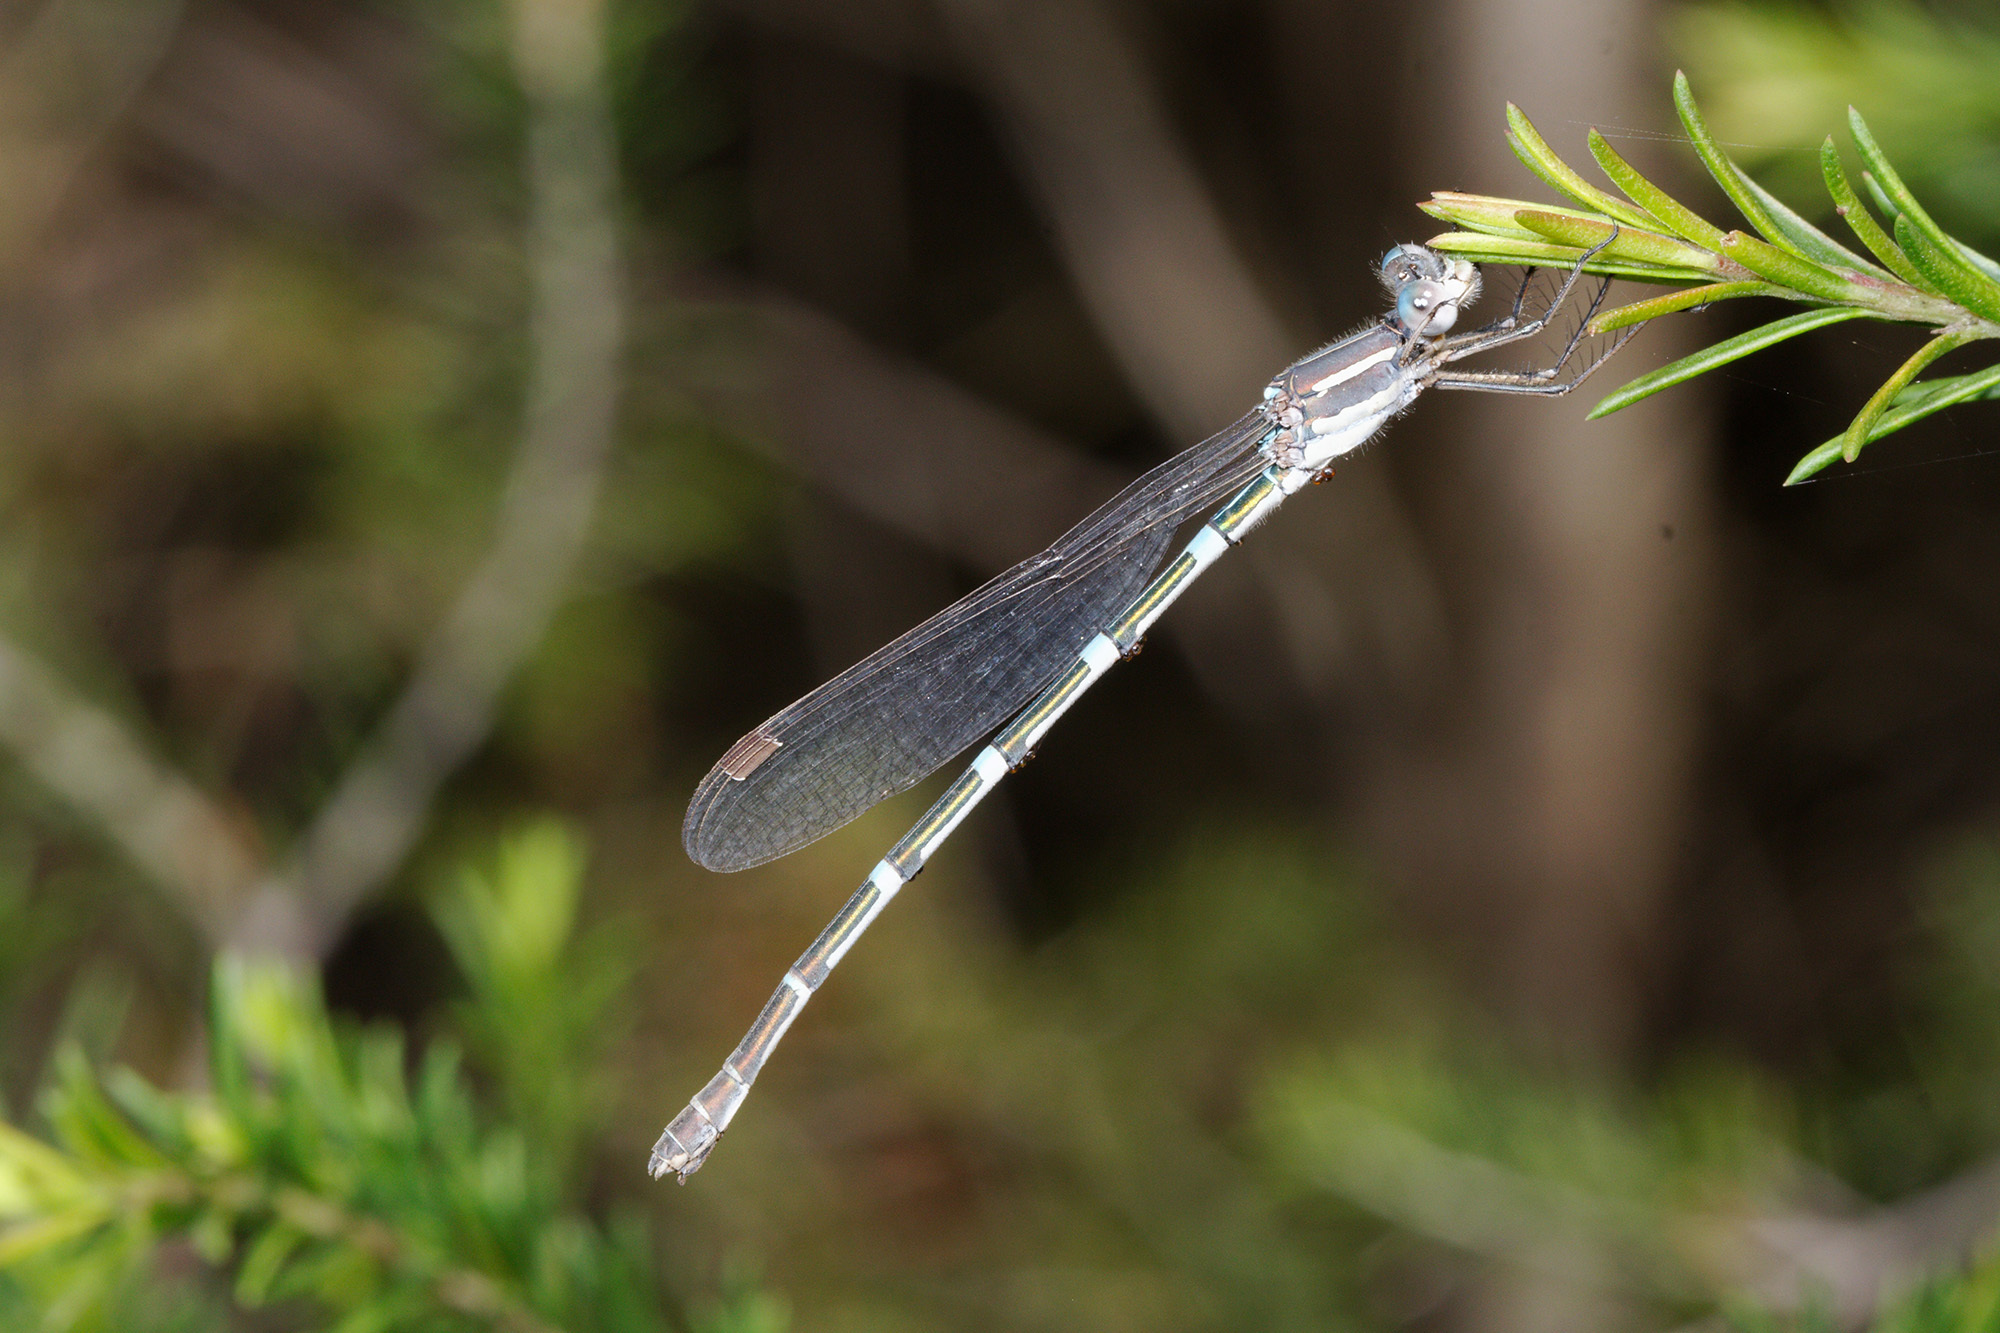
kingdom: Animalia
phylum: Arthropoda
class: Insecta
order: Odonata
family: Lestidae
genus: Austrolestes
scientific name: Austrolestes leda
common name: Wandering ringtail
